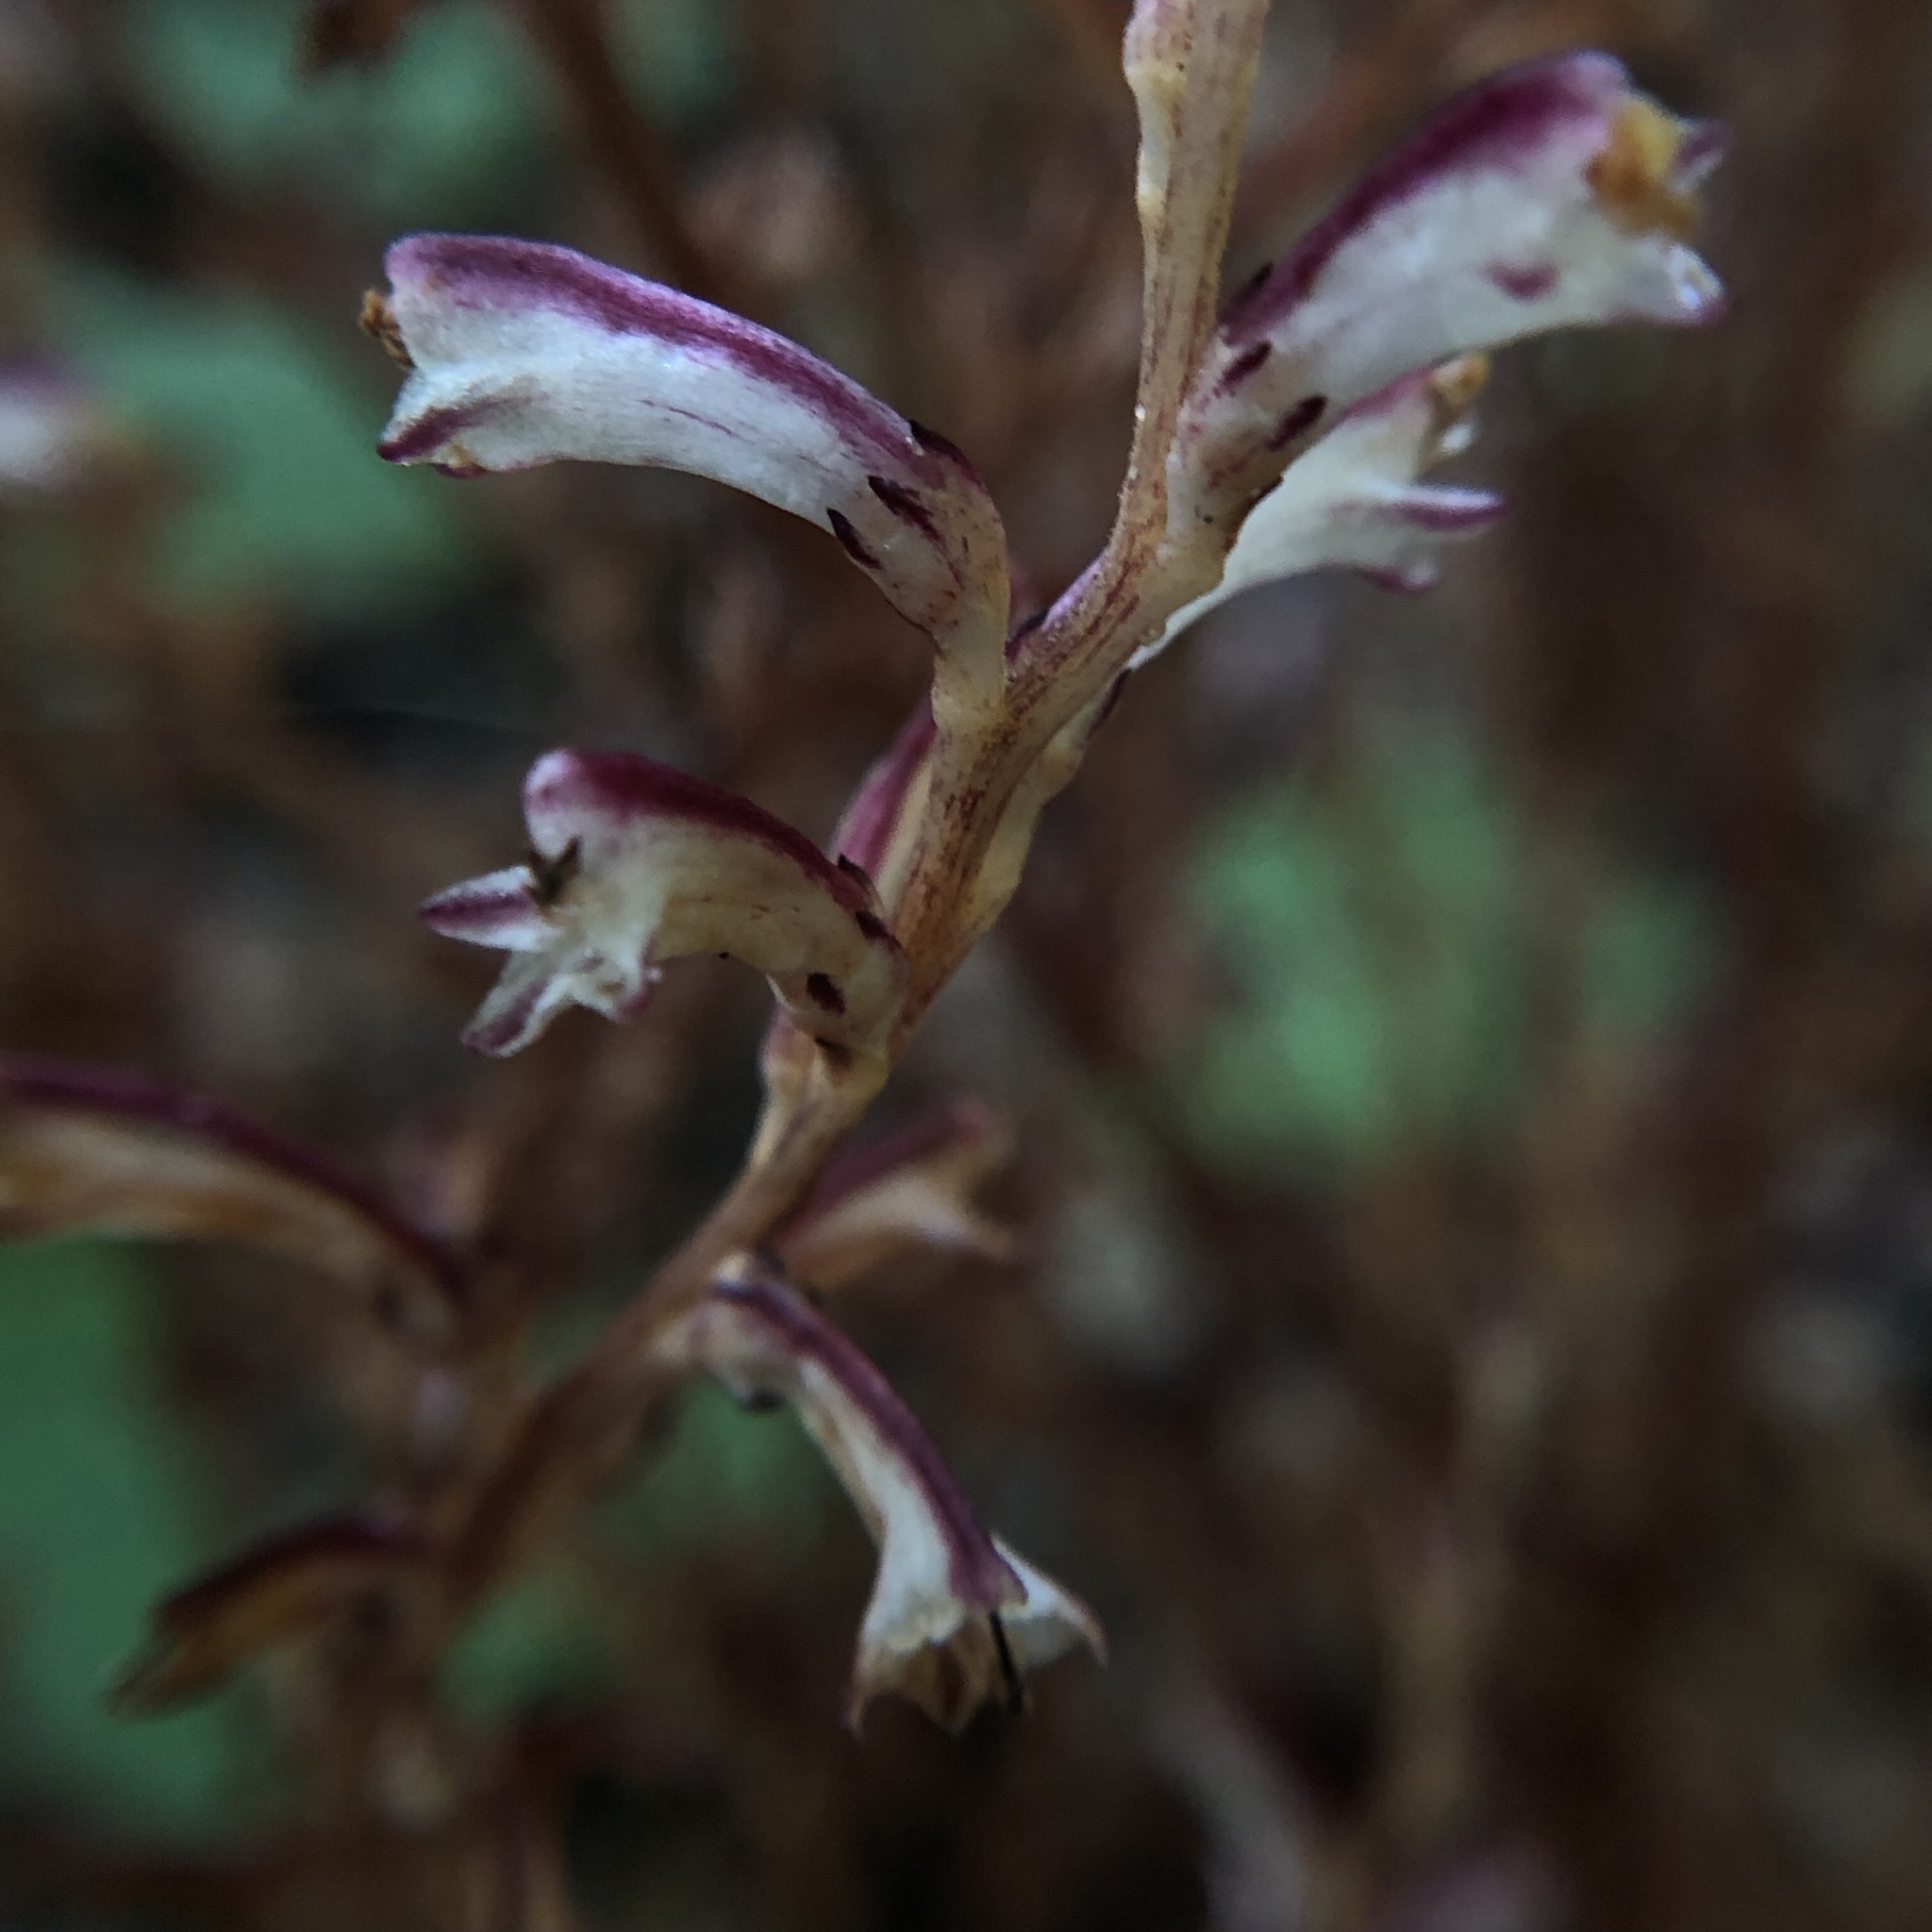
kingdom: Plantae
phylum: Tracheophyta
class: Magnoliopsida
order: Lamiales
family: Orobanchaceae
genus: Epifagus
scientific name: Epifagus virginiana
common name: Beechdrops
